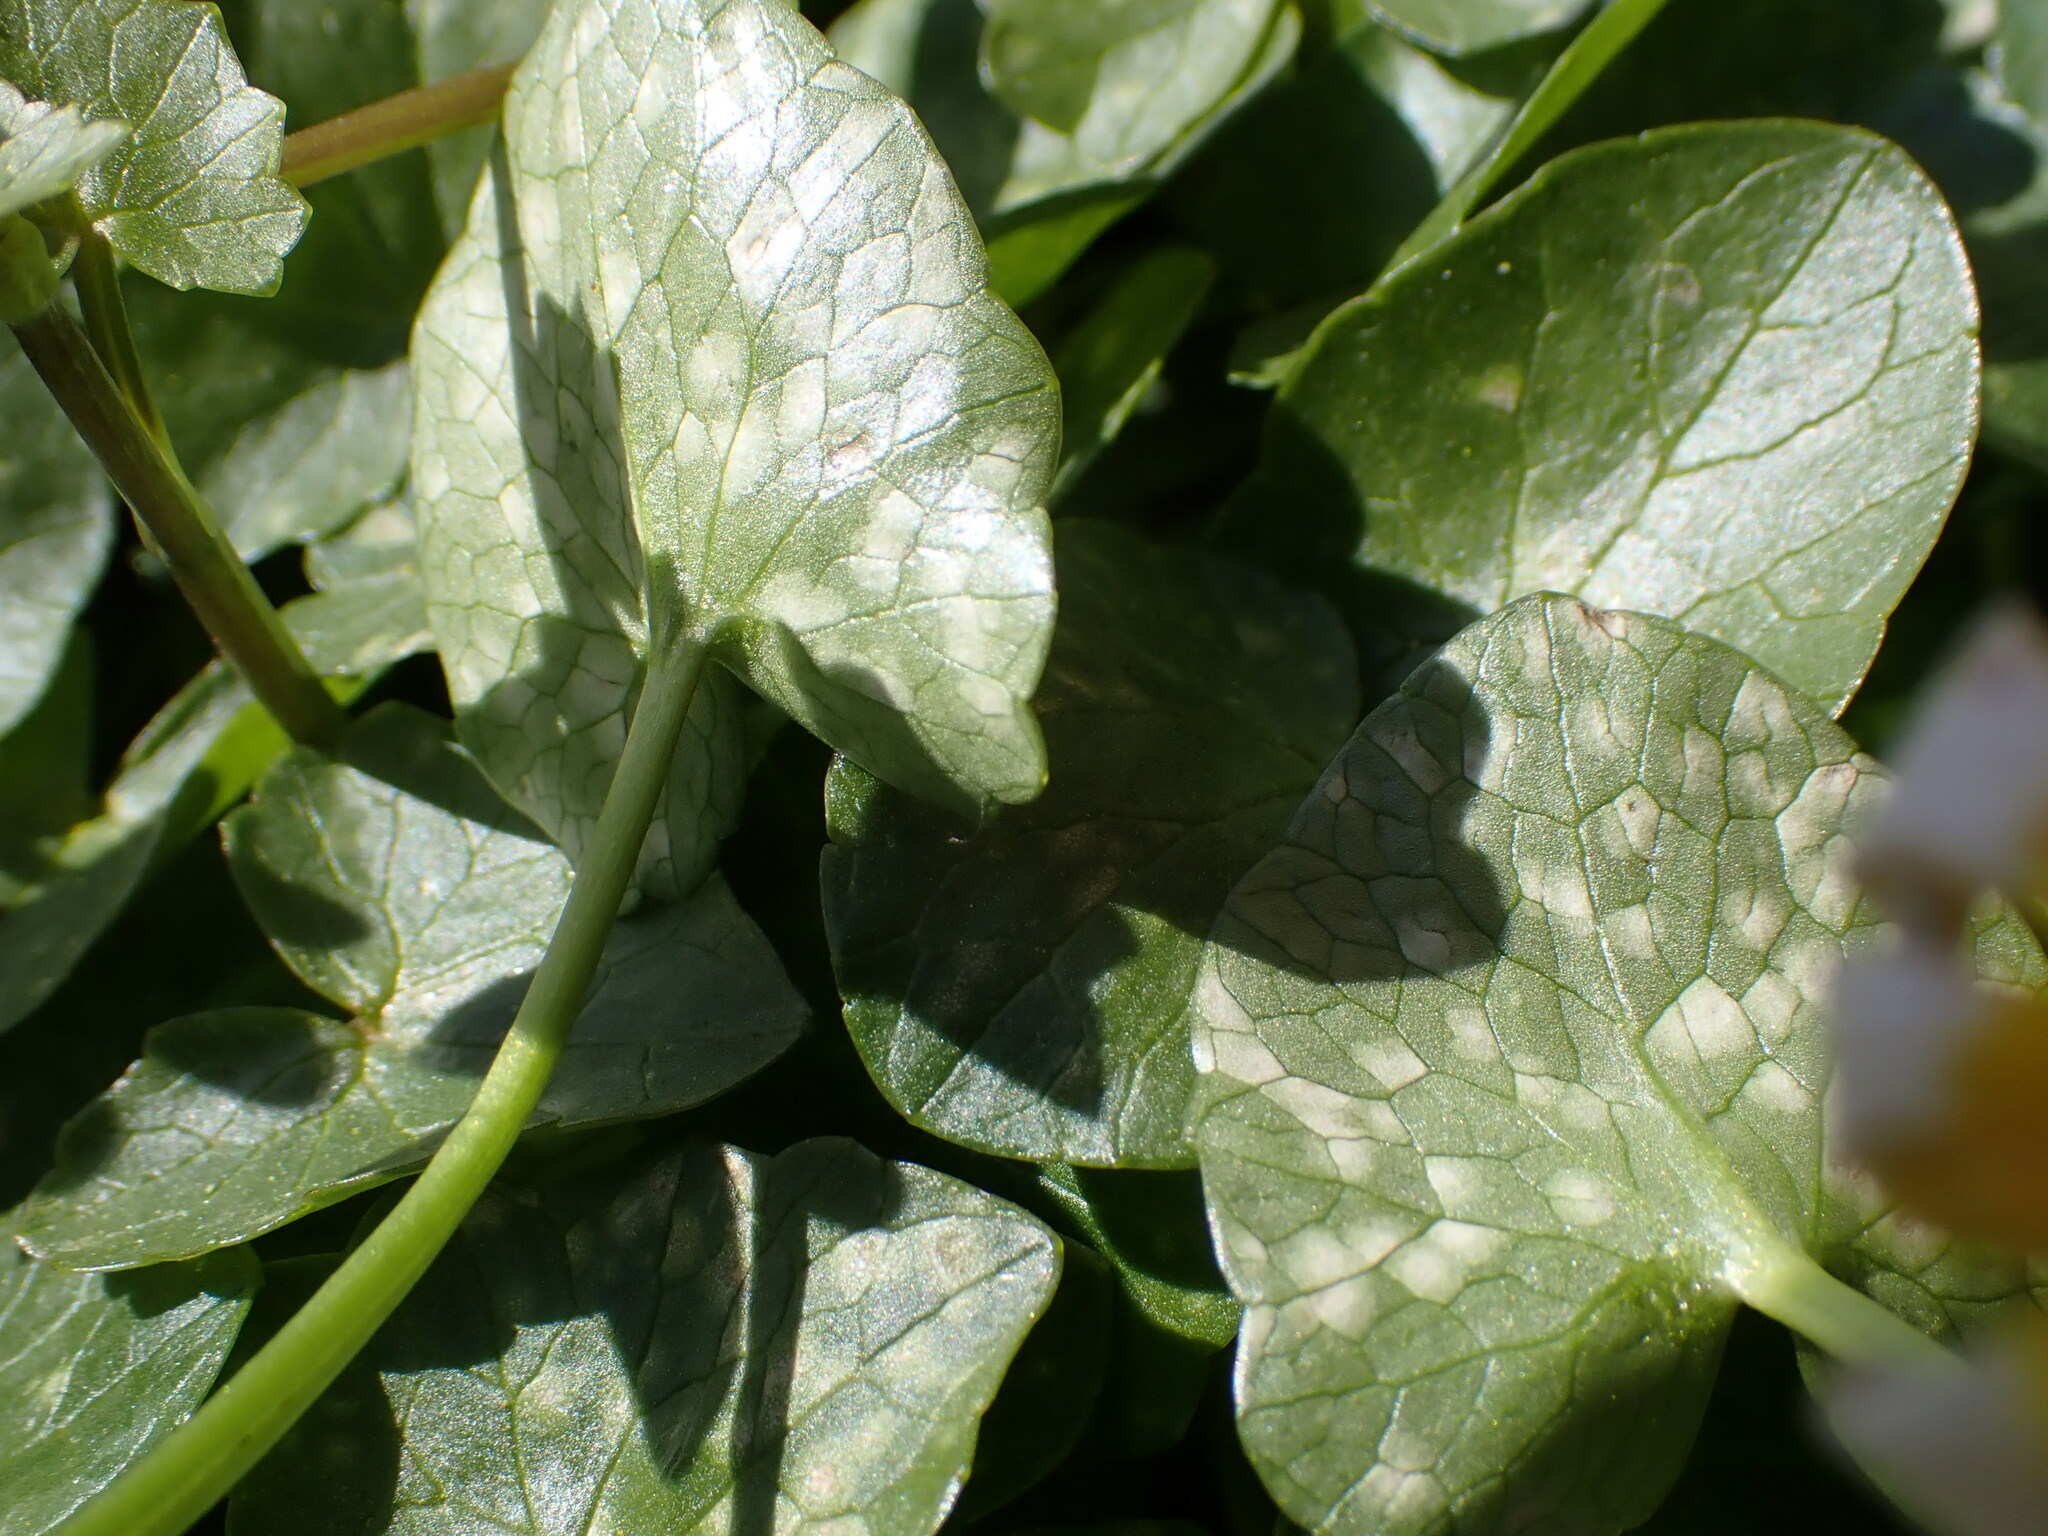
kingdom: Fungi
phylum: Basidiomycota
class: Exobasidiomycetes
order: Entylomatales
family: Entylomataceae
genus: Entyloma
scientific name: Entyloma ficariae
